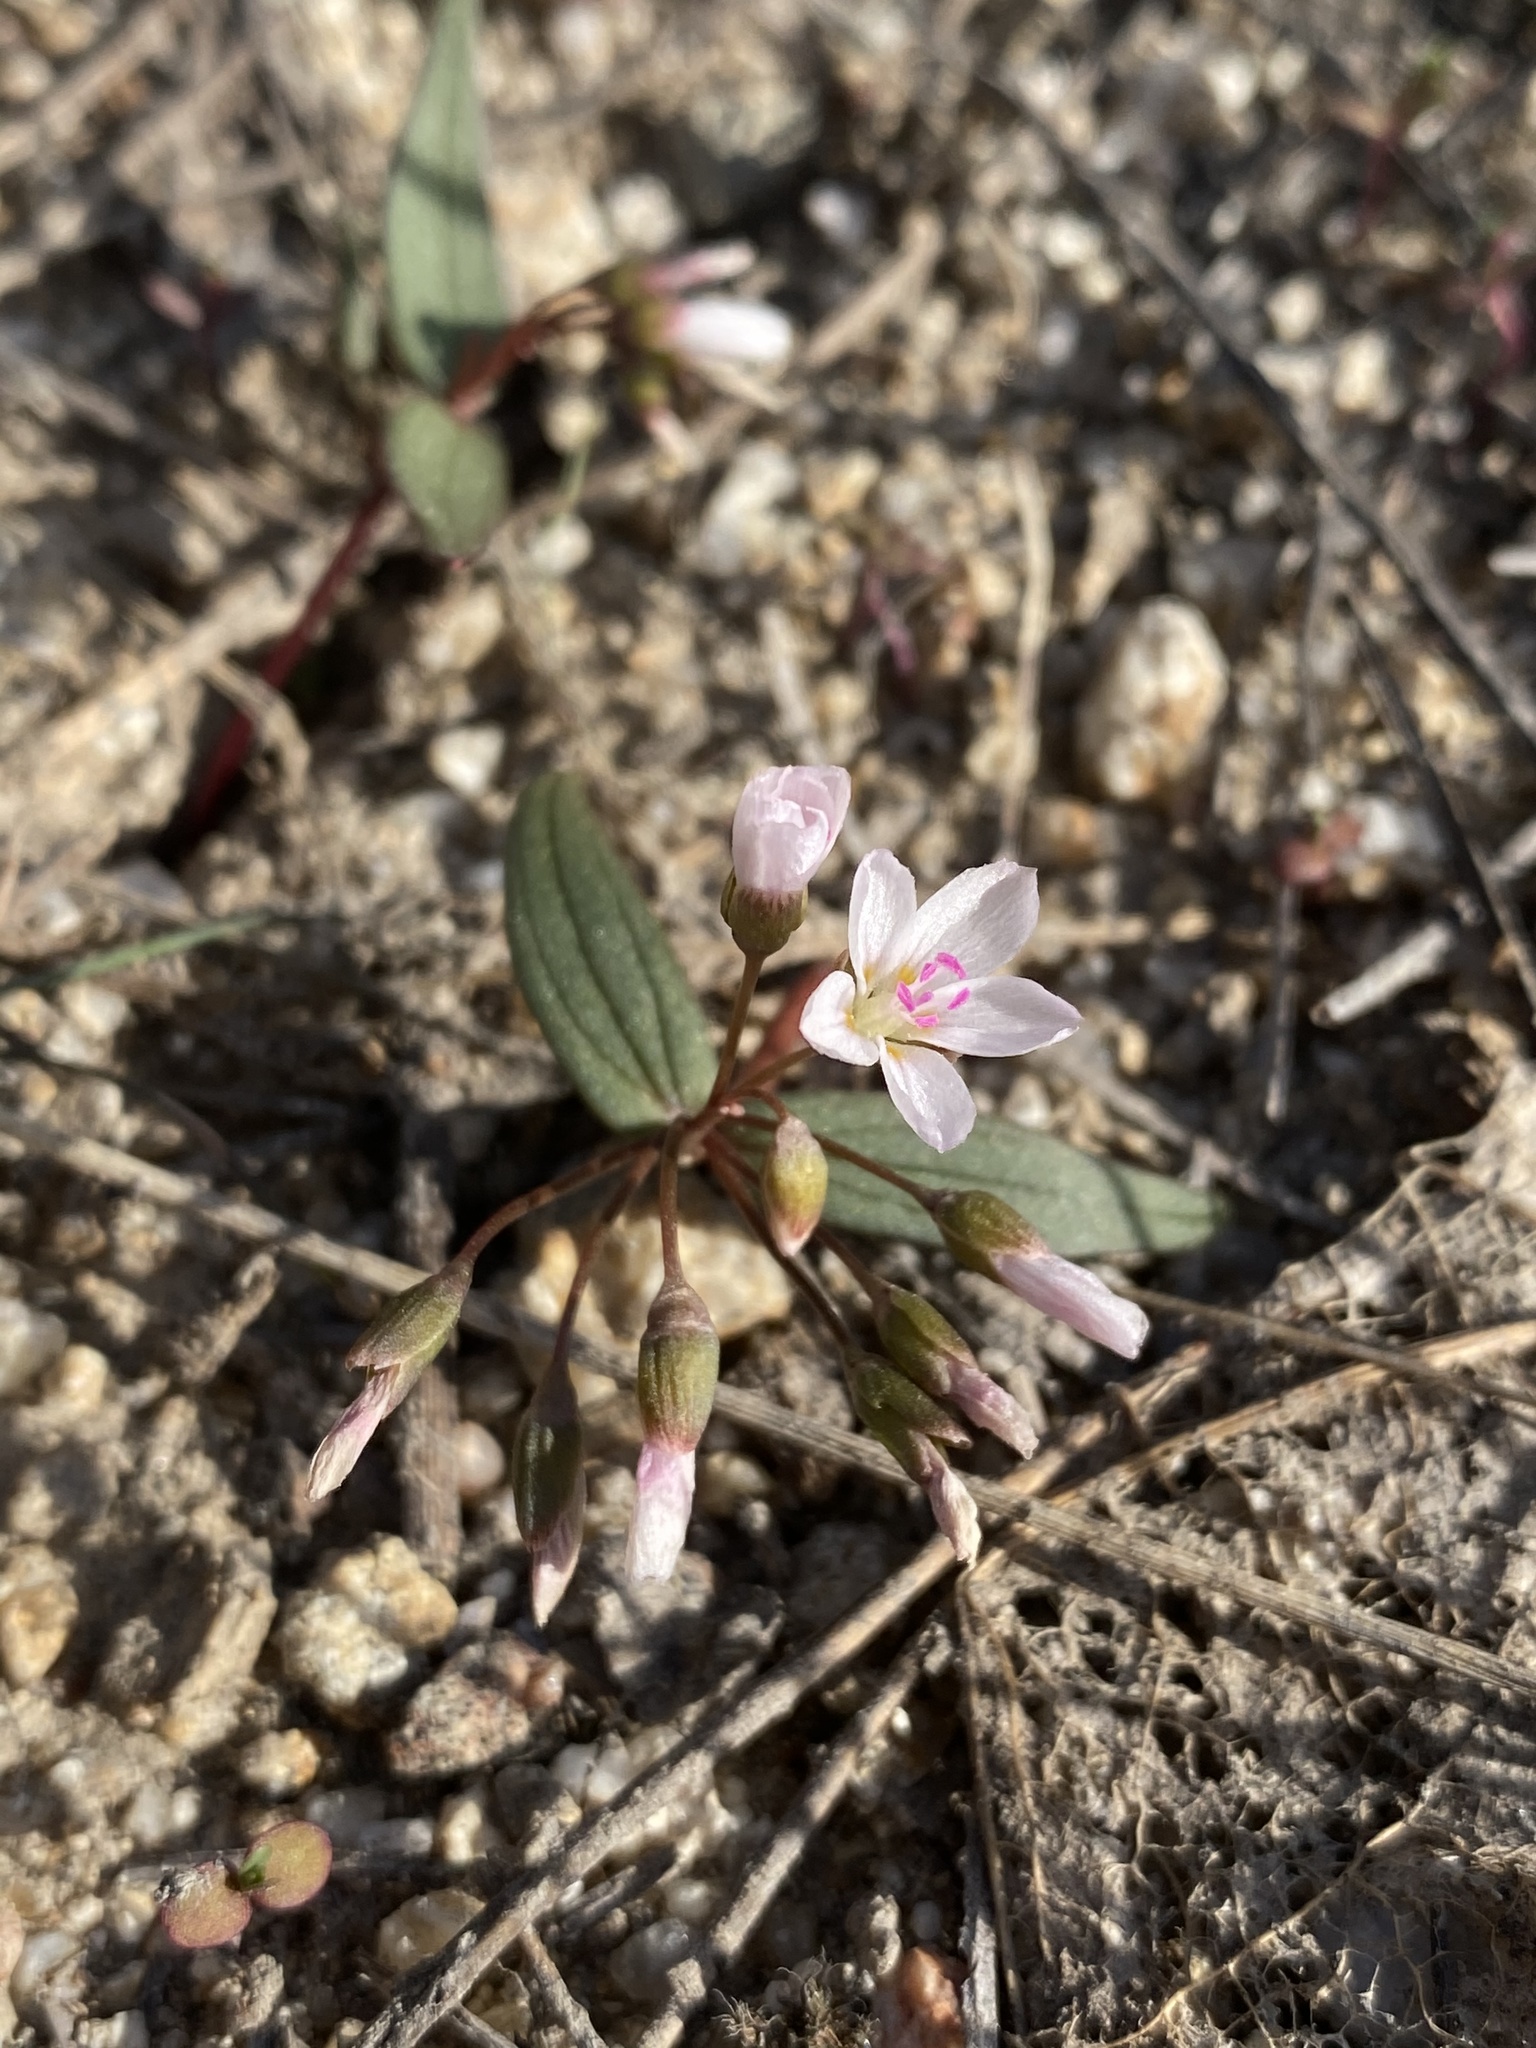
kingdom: Plantae
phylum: Tracheophyta
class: Magnoliopsida
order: Caryophyllales
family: Montiaceae
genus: Claytonia
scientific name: Claytonia lanceolata
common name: Western spring-beauty
